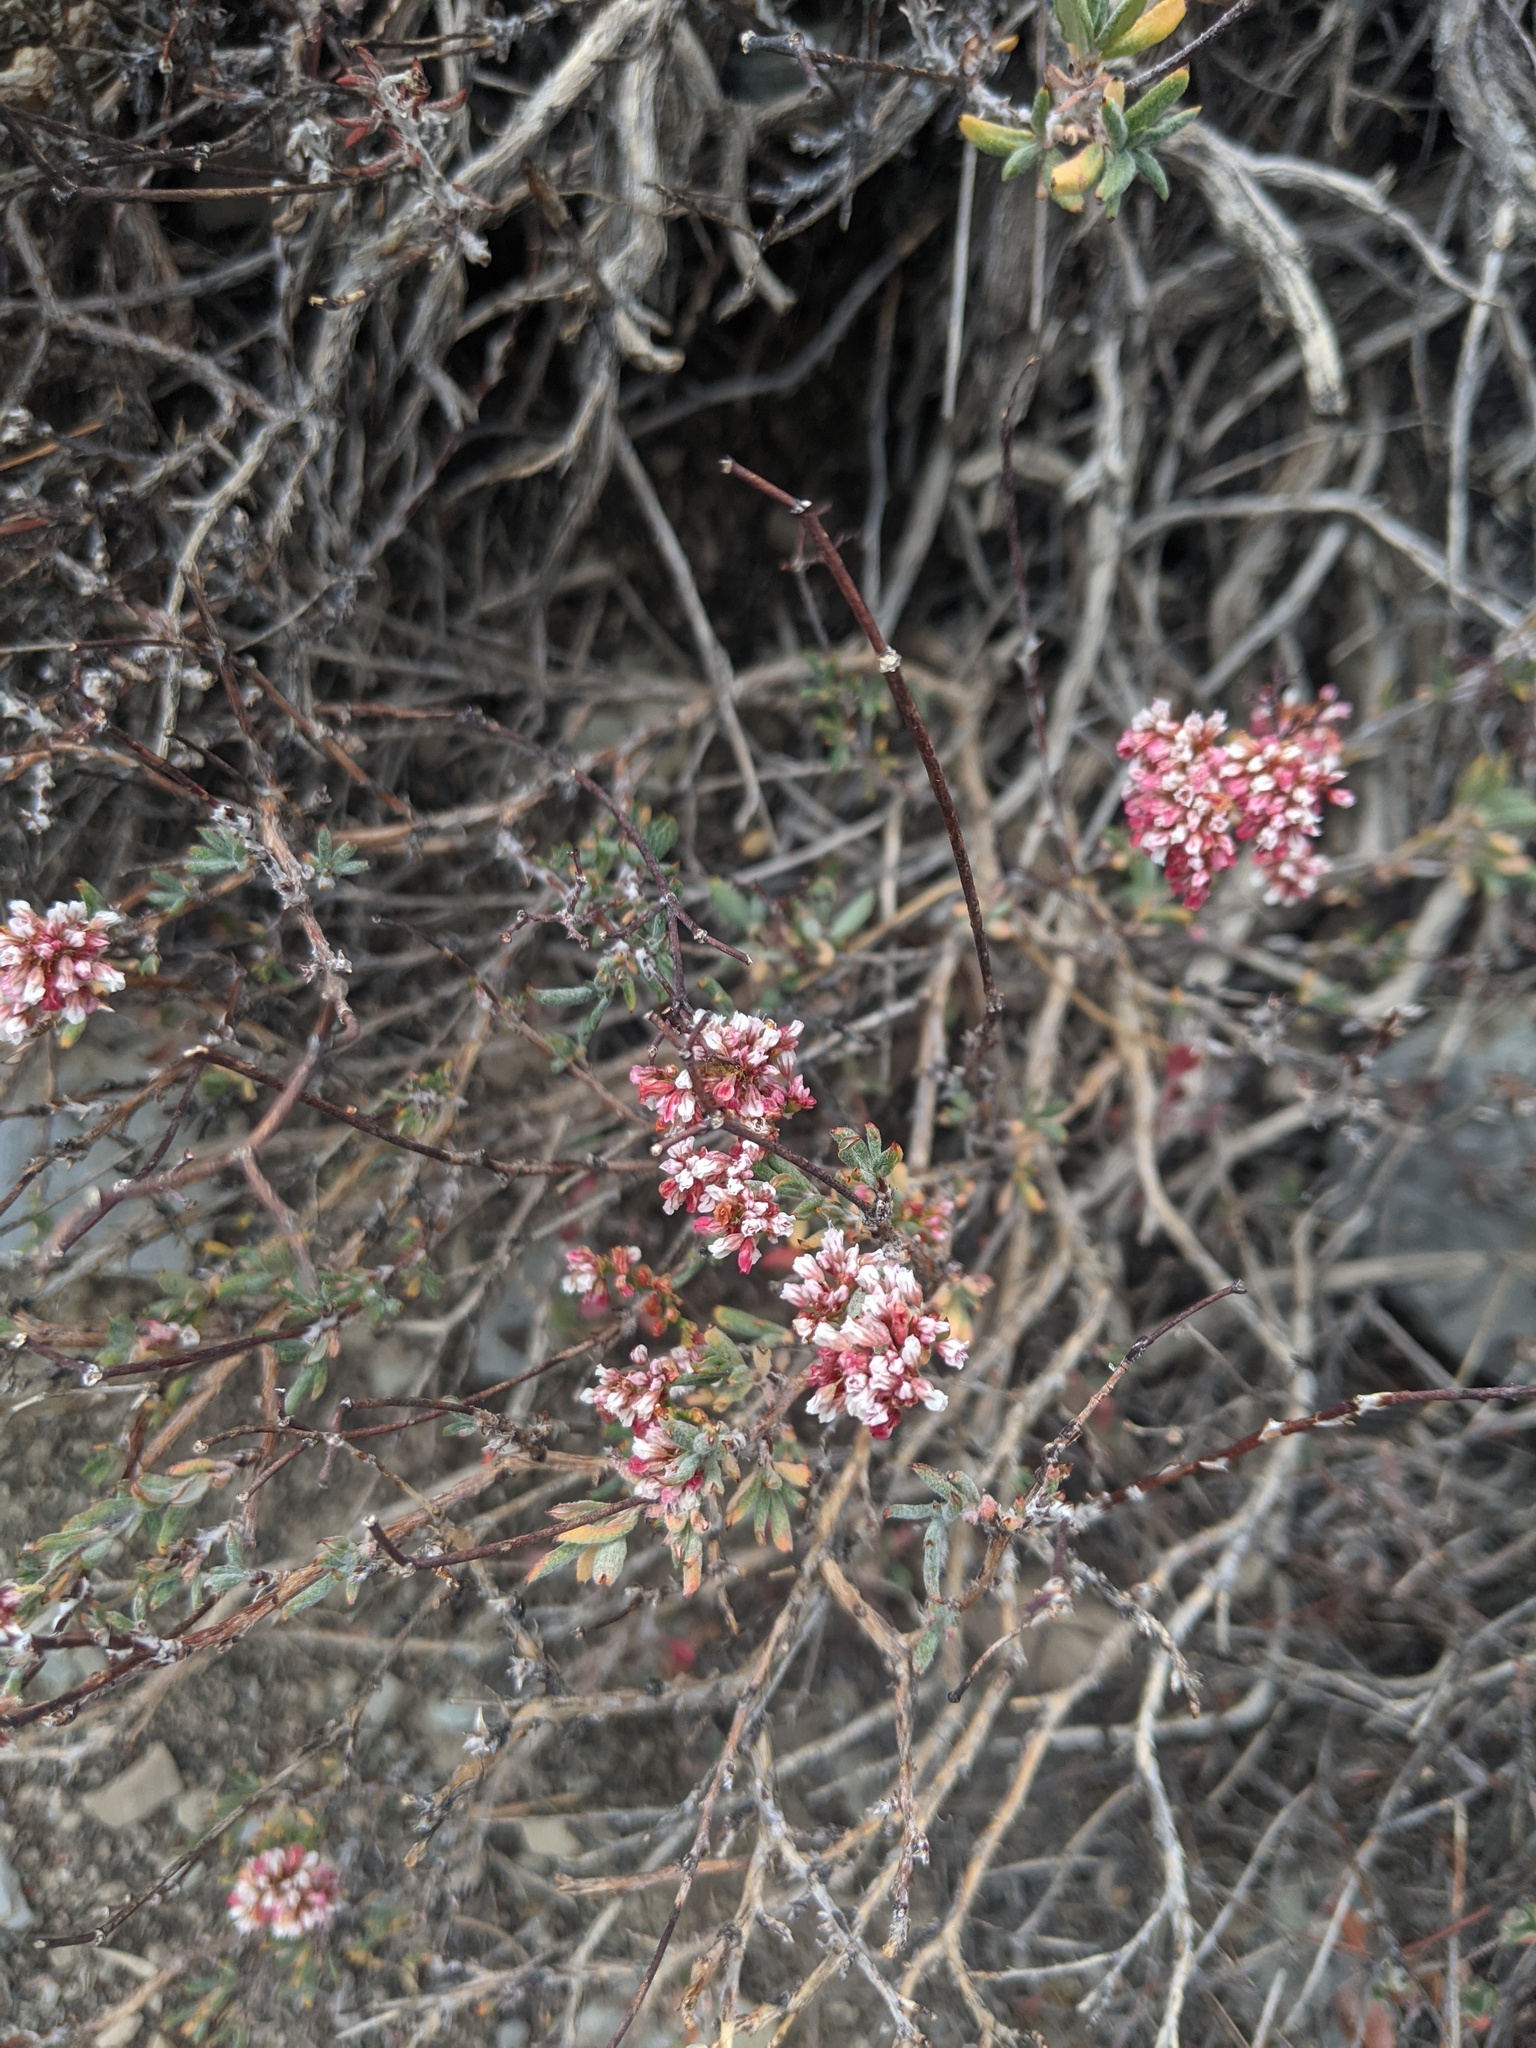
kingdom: Plantae
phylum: Tracheophyta
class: Magnoliopsida
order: Caryophyllales
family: Polygonaceae
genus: Eriogonum
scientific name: Eriogonum microtheca
